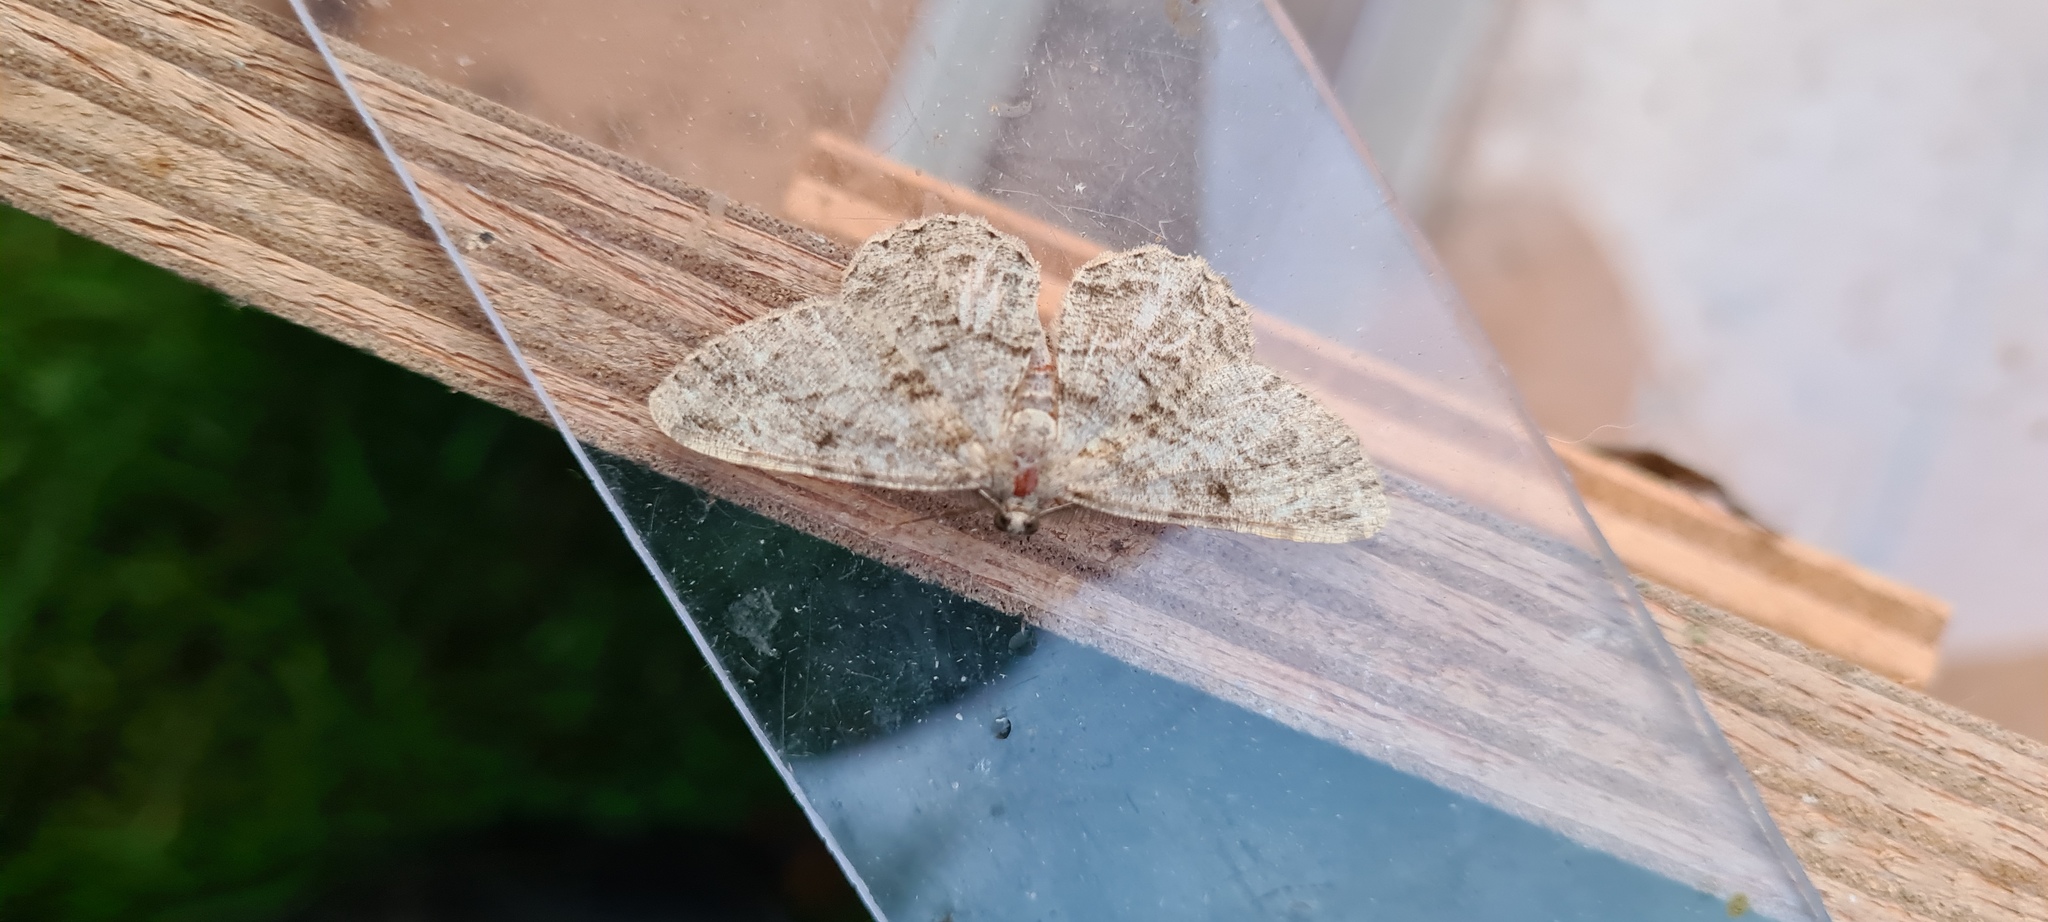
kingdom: Animalia
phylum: Arthropoda
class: Insecta
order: Lepidoptera
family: Geometridae
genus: Peribatodes
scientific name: Peribatodes rhomboidaria
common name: Willow beauty
